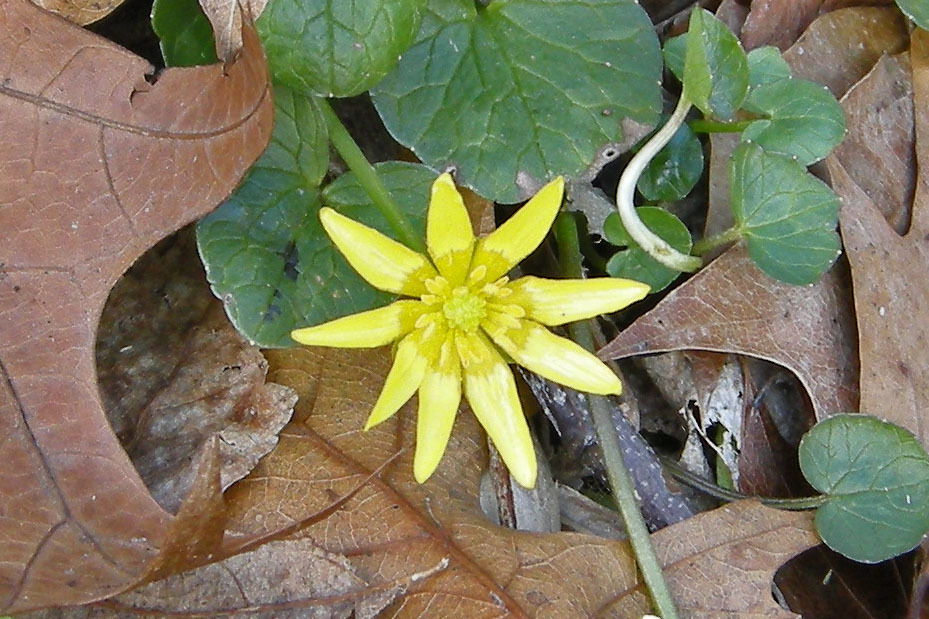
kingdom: Plantae
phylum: Tracheophyta
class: Magnoliopsida
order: Ranunculales
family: Ranunculaceae
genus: Ficaria
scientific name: Ficaria verna
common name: Lesser celandine
